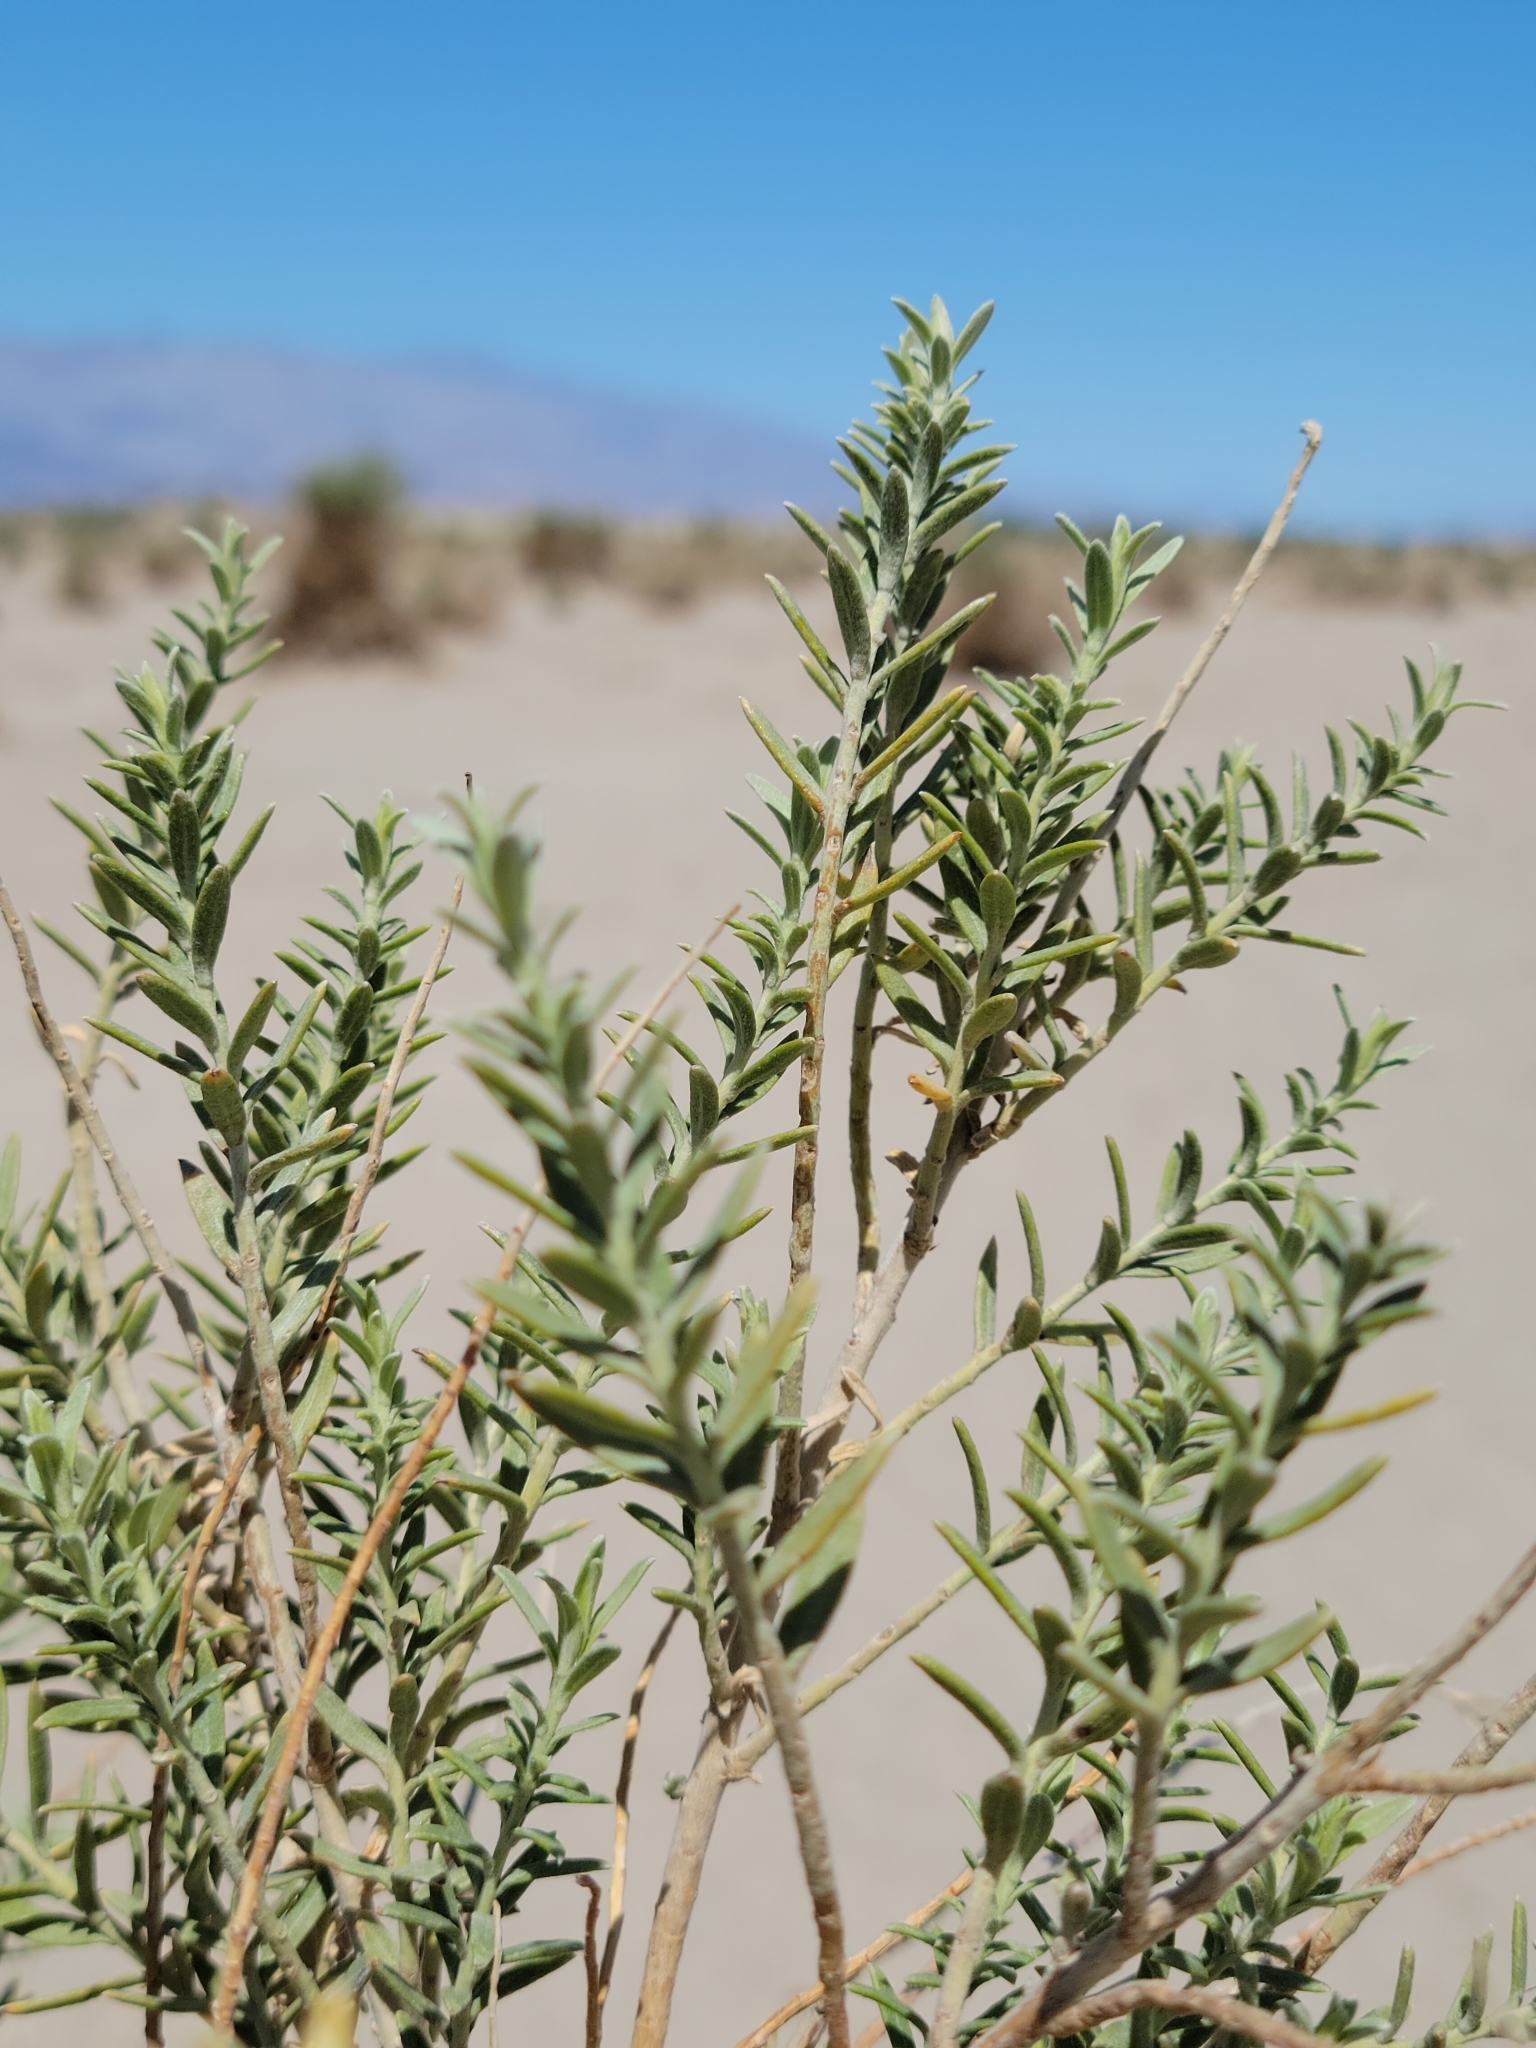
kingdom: Plantae
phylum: Tracheophyta
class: Magnoliopsida
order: Asterales
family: Asteraceae
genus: Pluchea
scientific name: Pluchea sericea
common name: Arrow-weed
